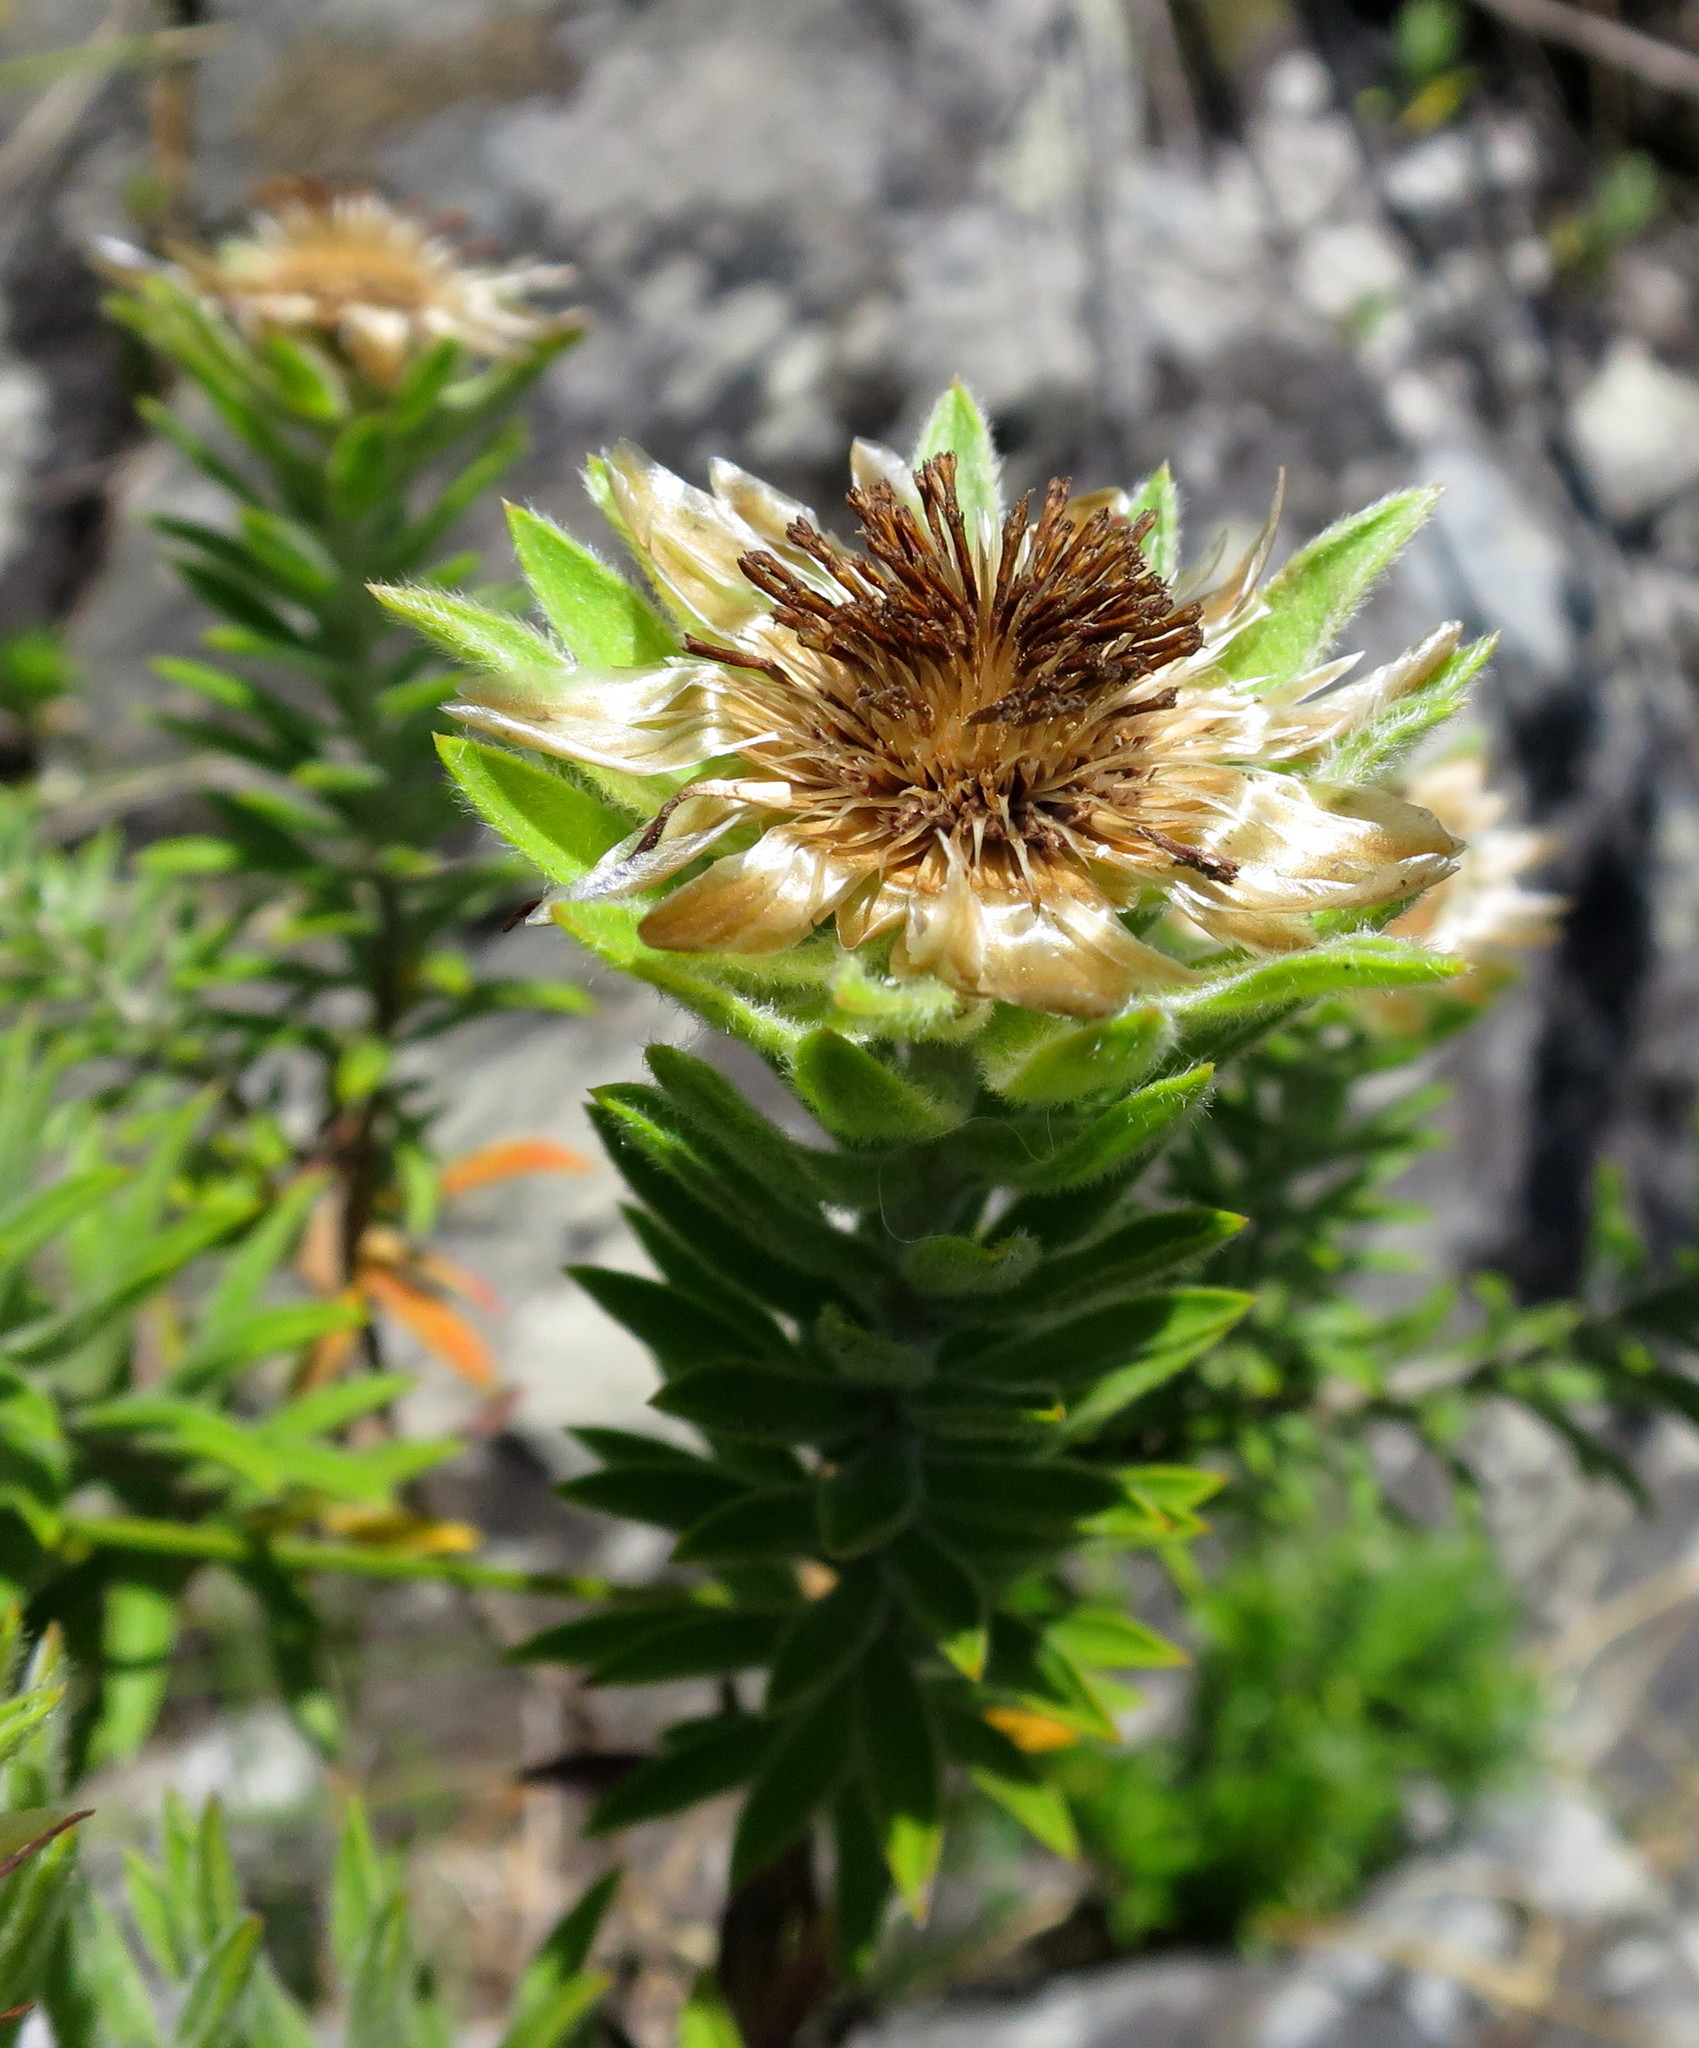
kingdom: Plantae
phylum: Tracheophyta
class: Magnoliopsida
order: Asterales
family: Asteraceae
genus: Oedera
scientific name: Oedera calycina
